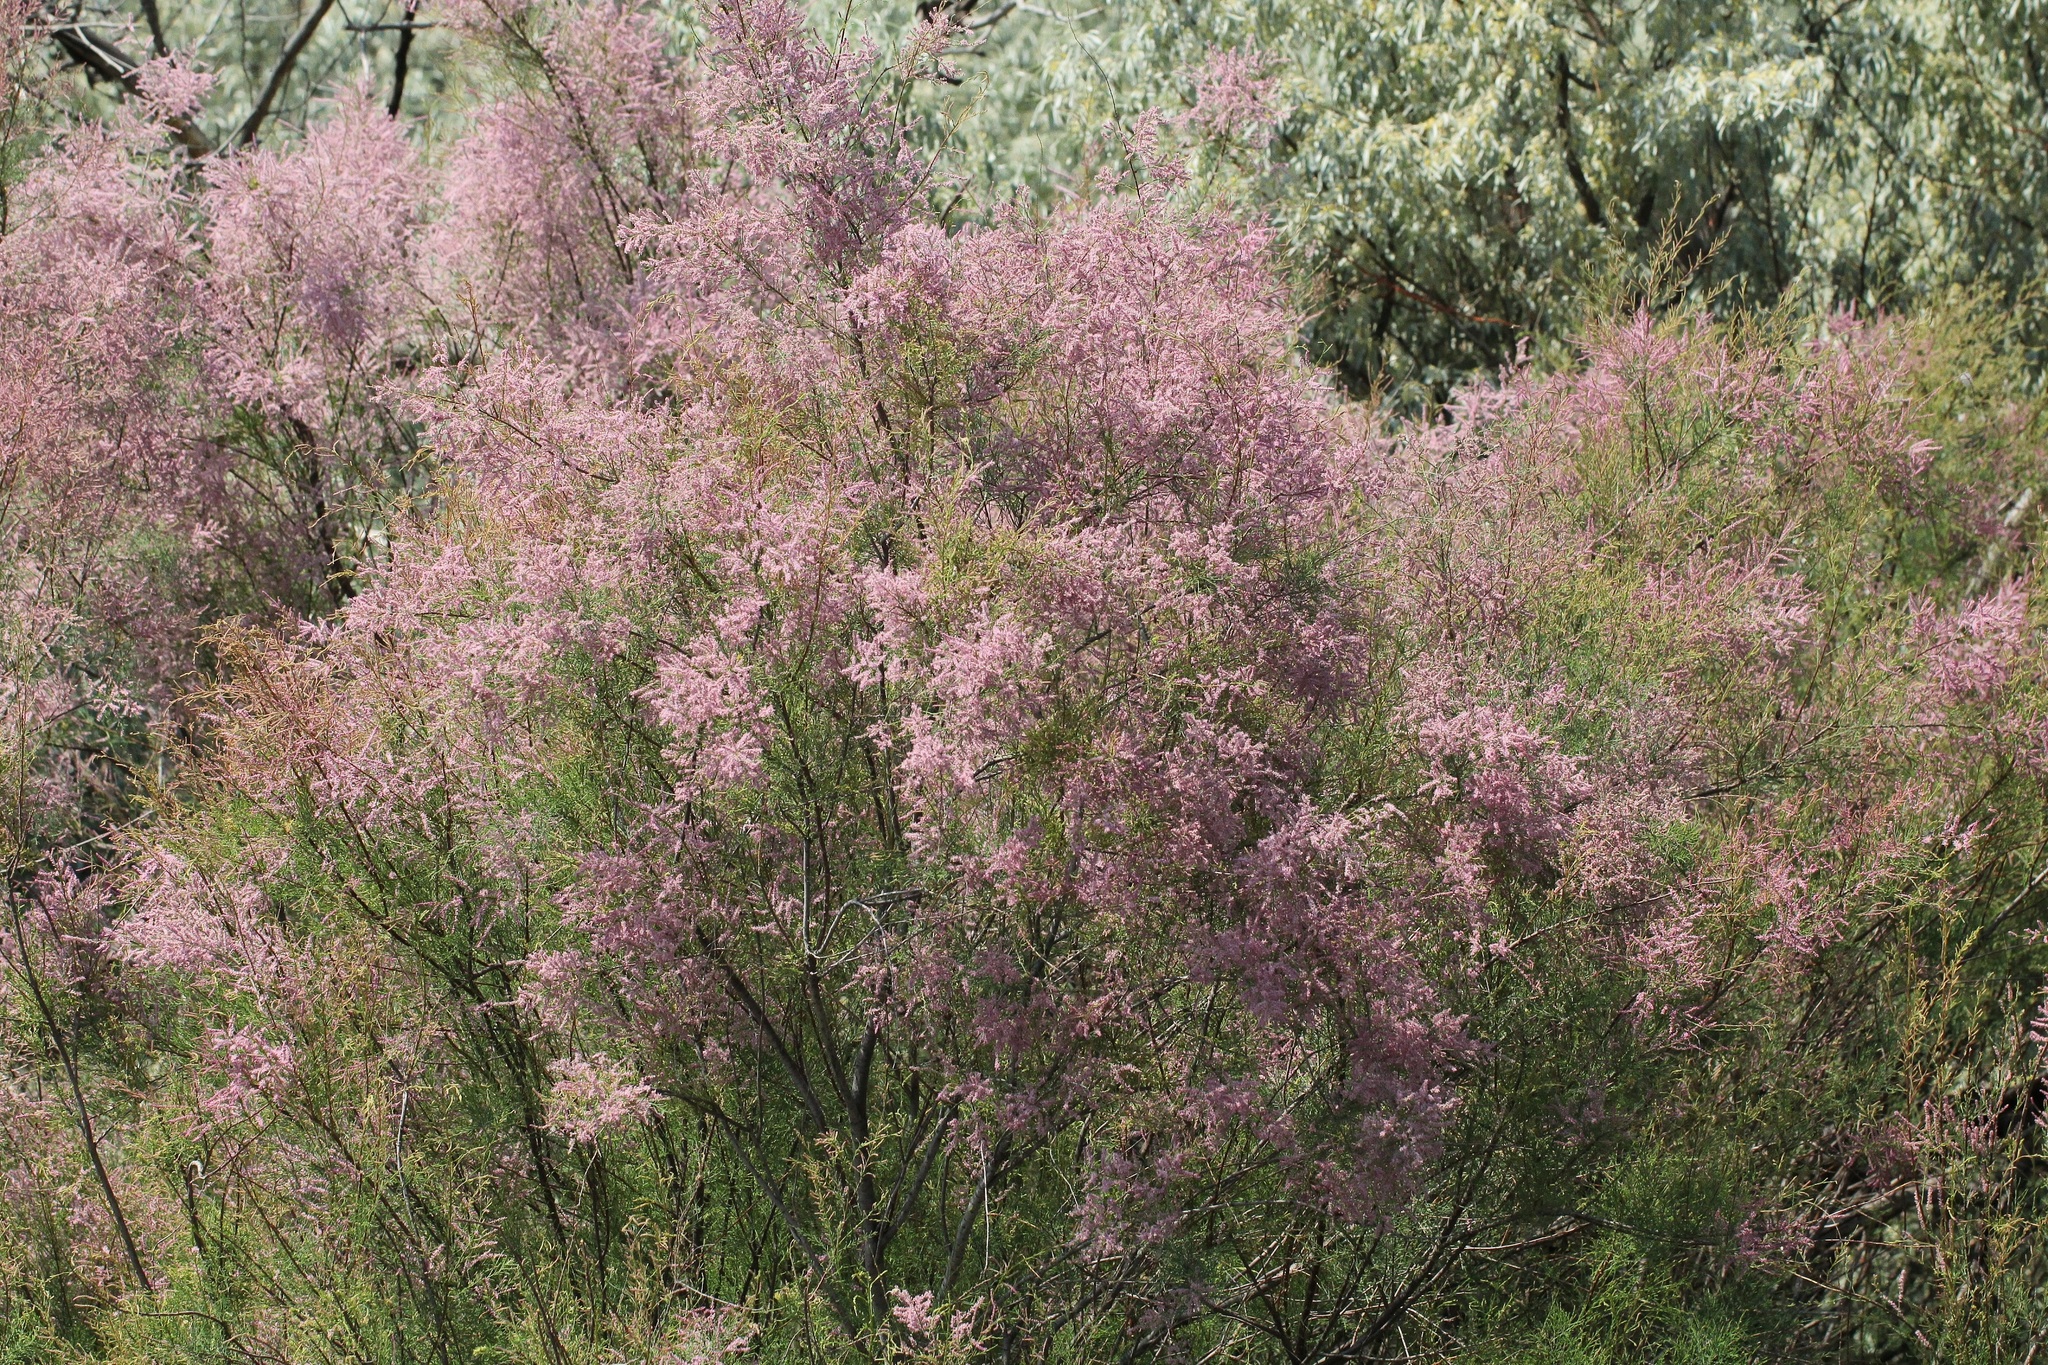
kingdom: Plantae
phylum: Tracheophyta
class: Magnoliopsida
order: Caryophyllales
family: Tamaricaceae
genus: Tamarix
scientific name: Tamarix ramosissima
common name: Pink tamarisk
